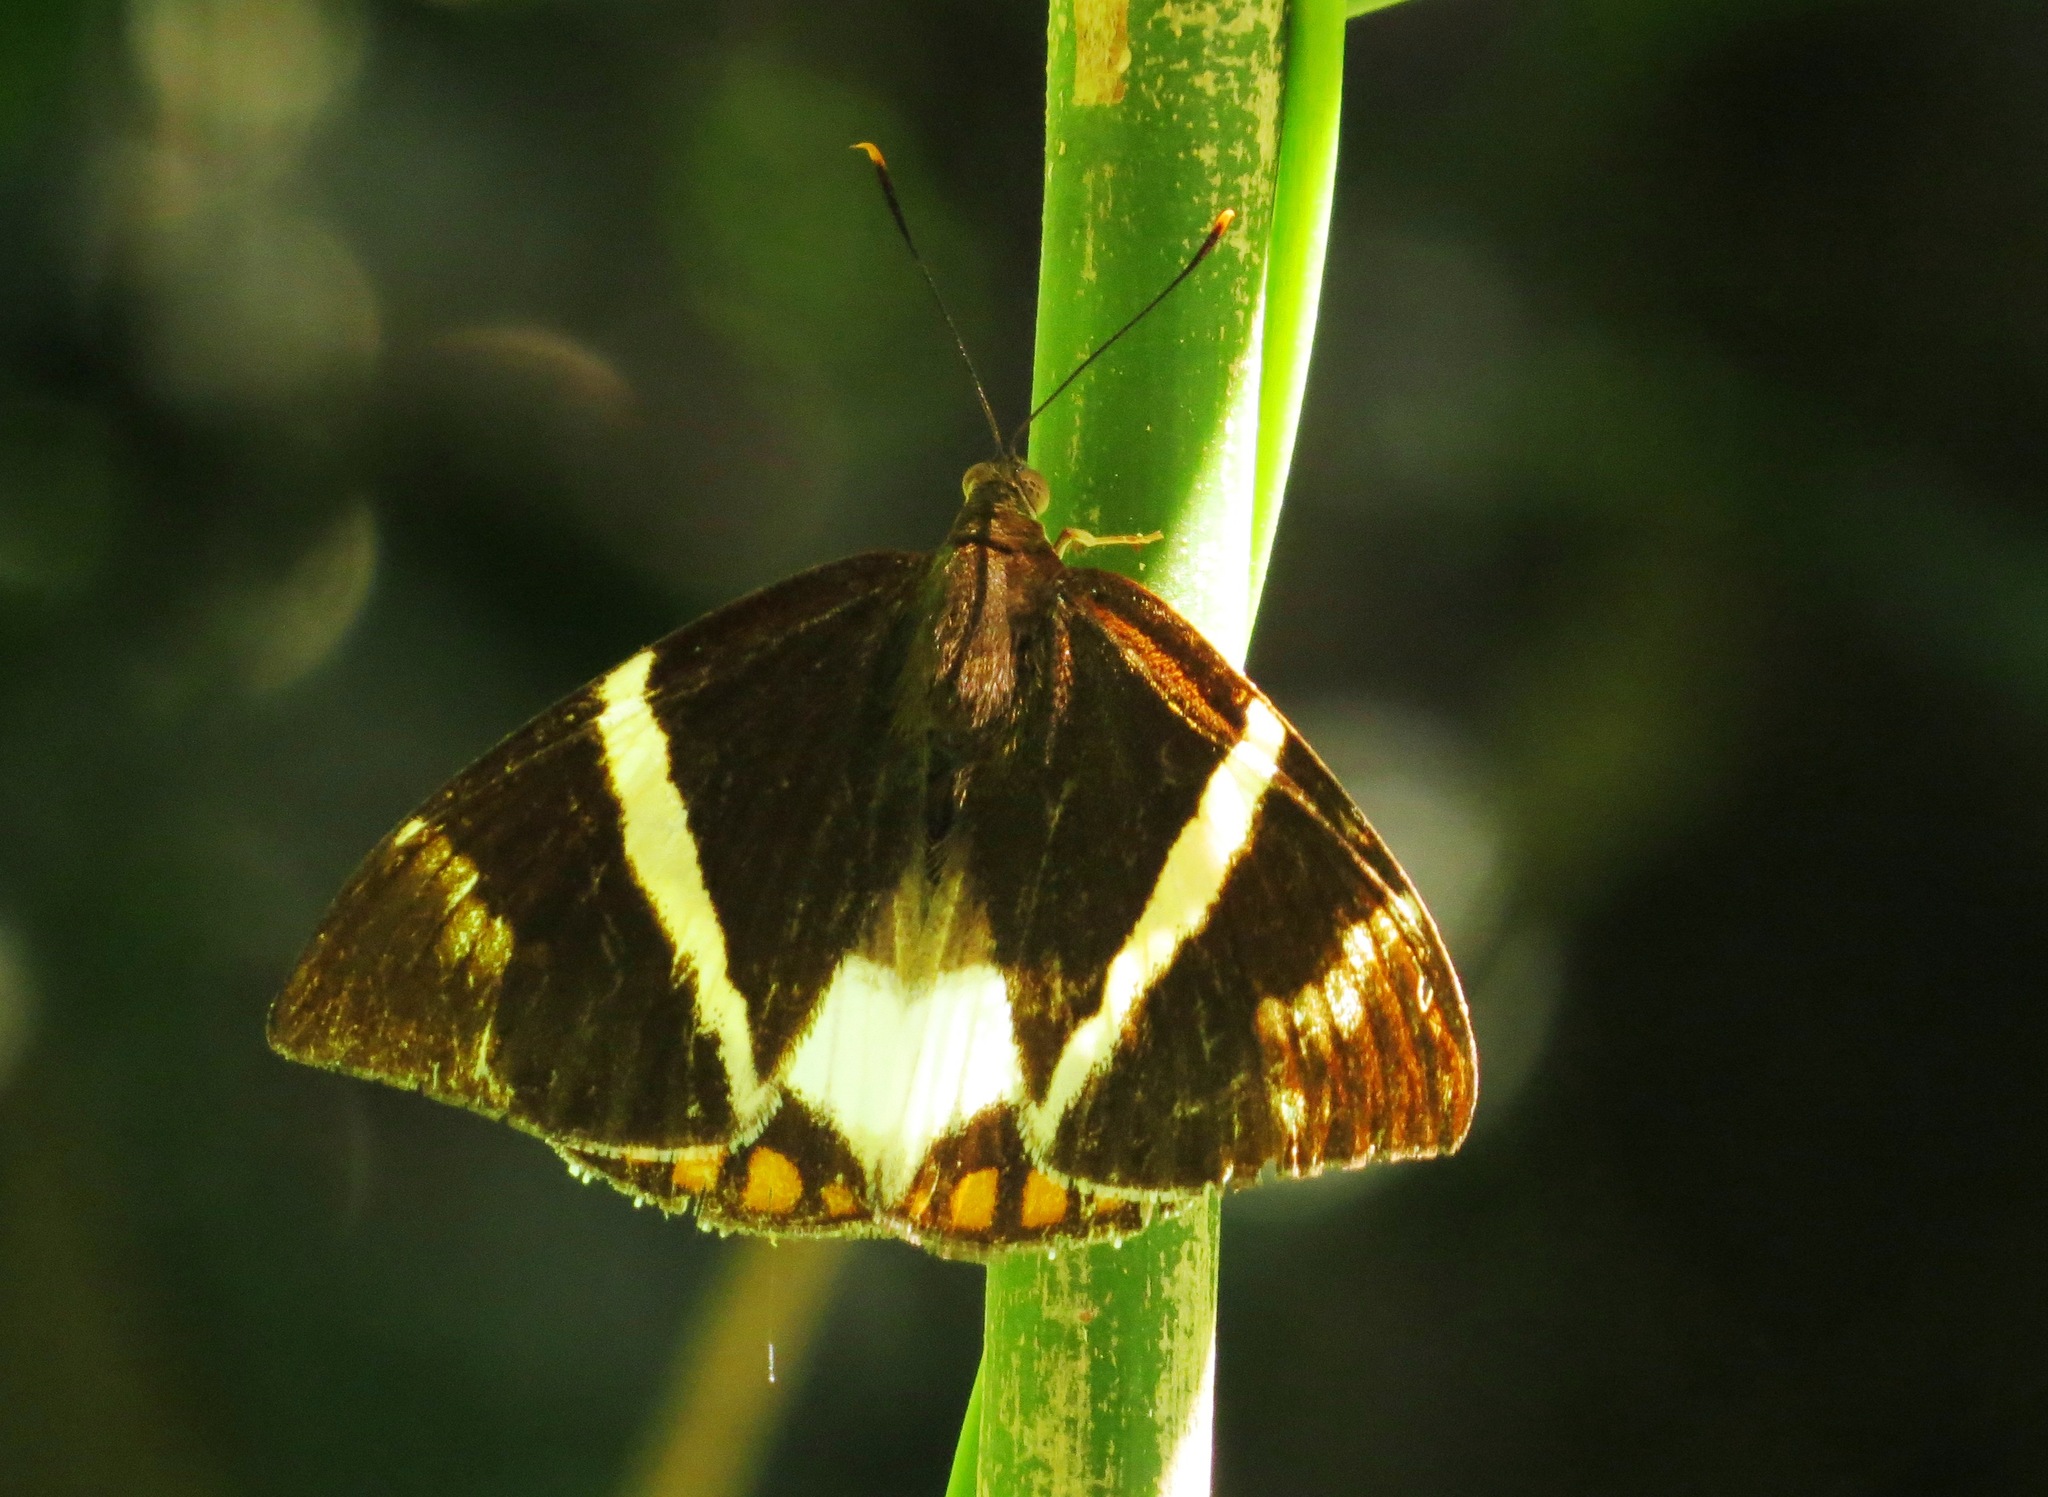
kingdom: Animalia
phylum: Arthropoda
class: Insecta
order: Lepidoptera
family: Castniidae
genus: Castnia
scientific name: Castnia licus
